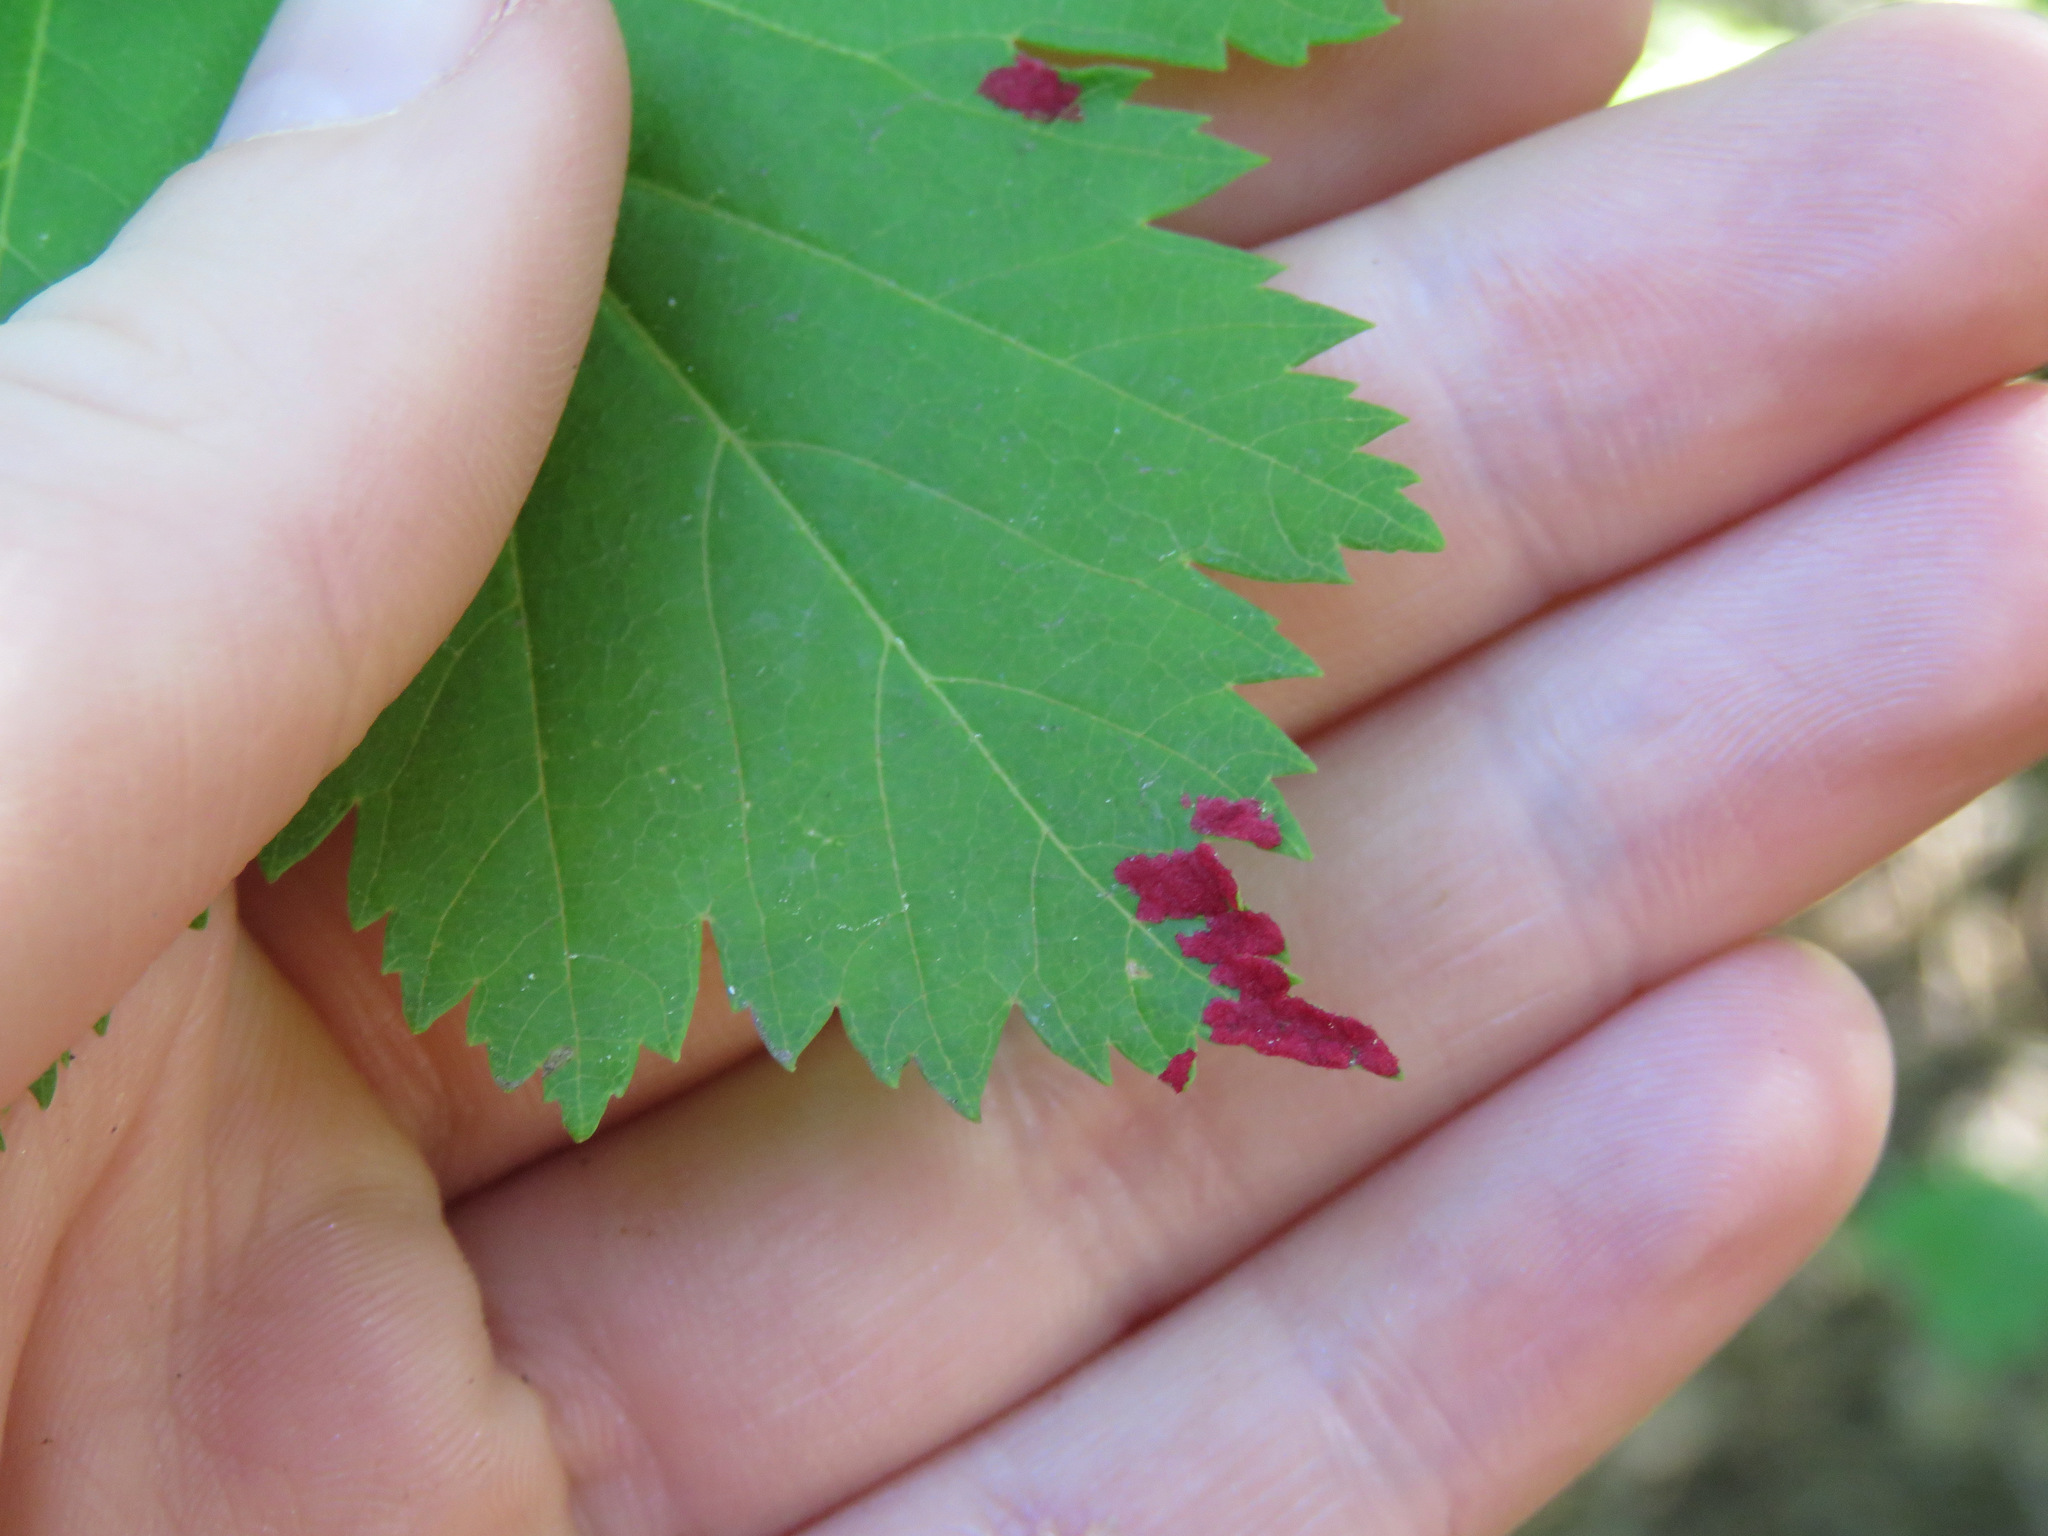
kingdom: Animalia
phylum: Arthropoda
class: Arachnida
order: Trombidiformes
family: Eriophyidae
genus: Aceria
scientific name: Aceria
